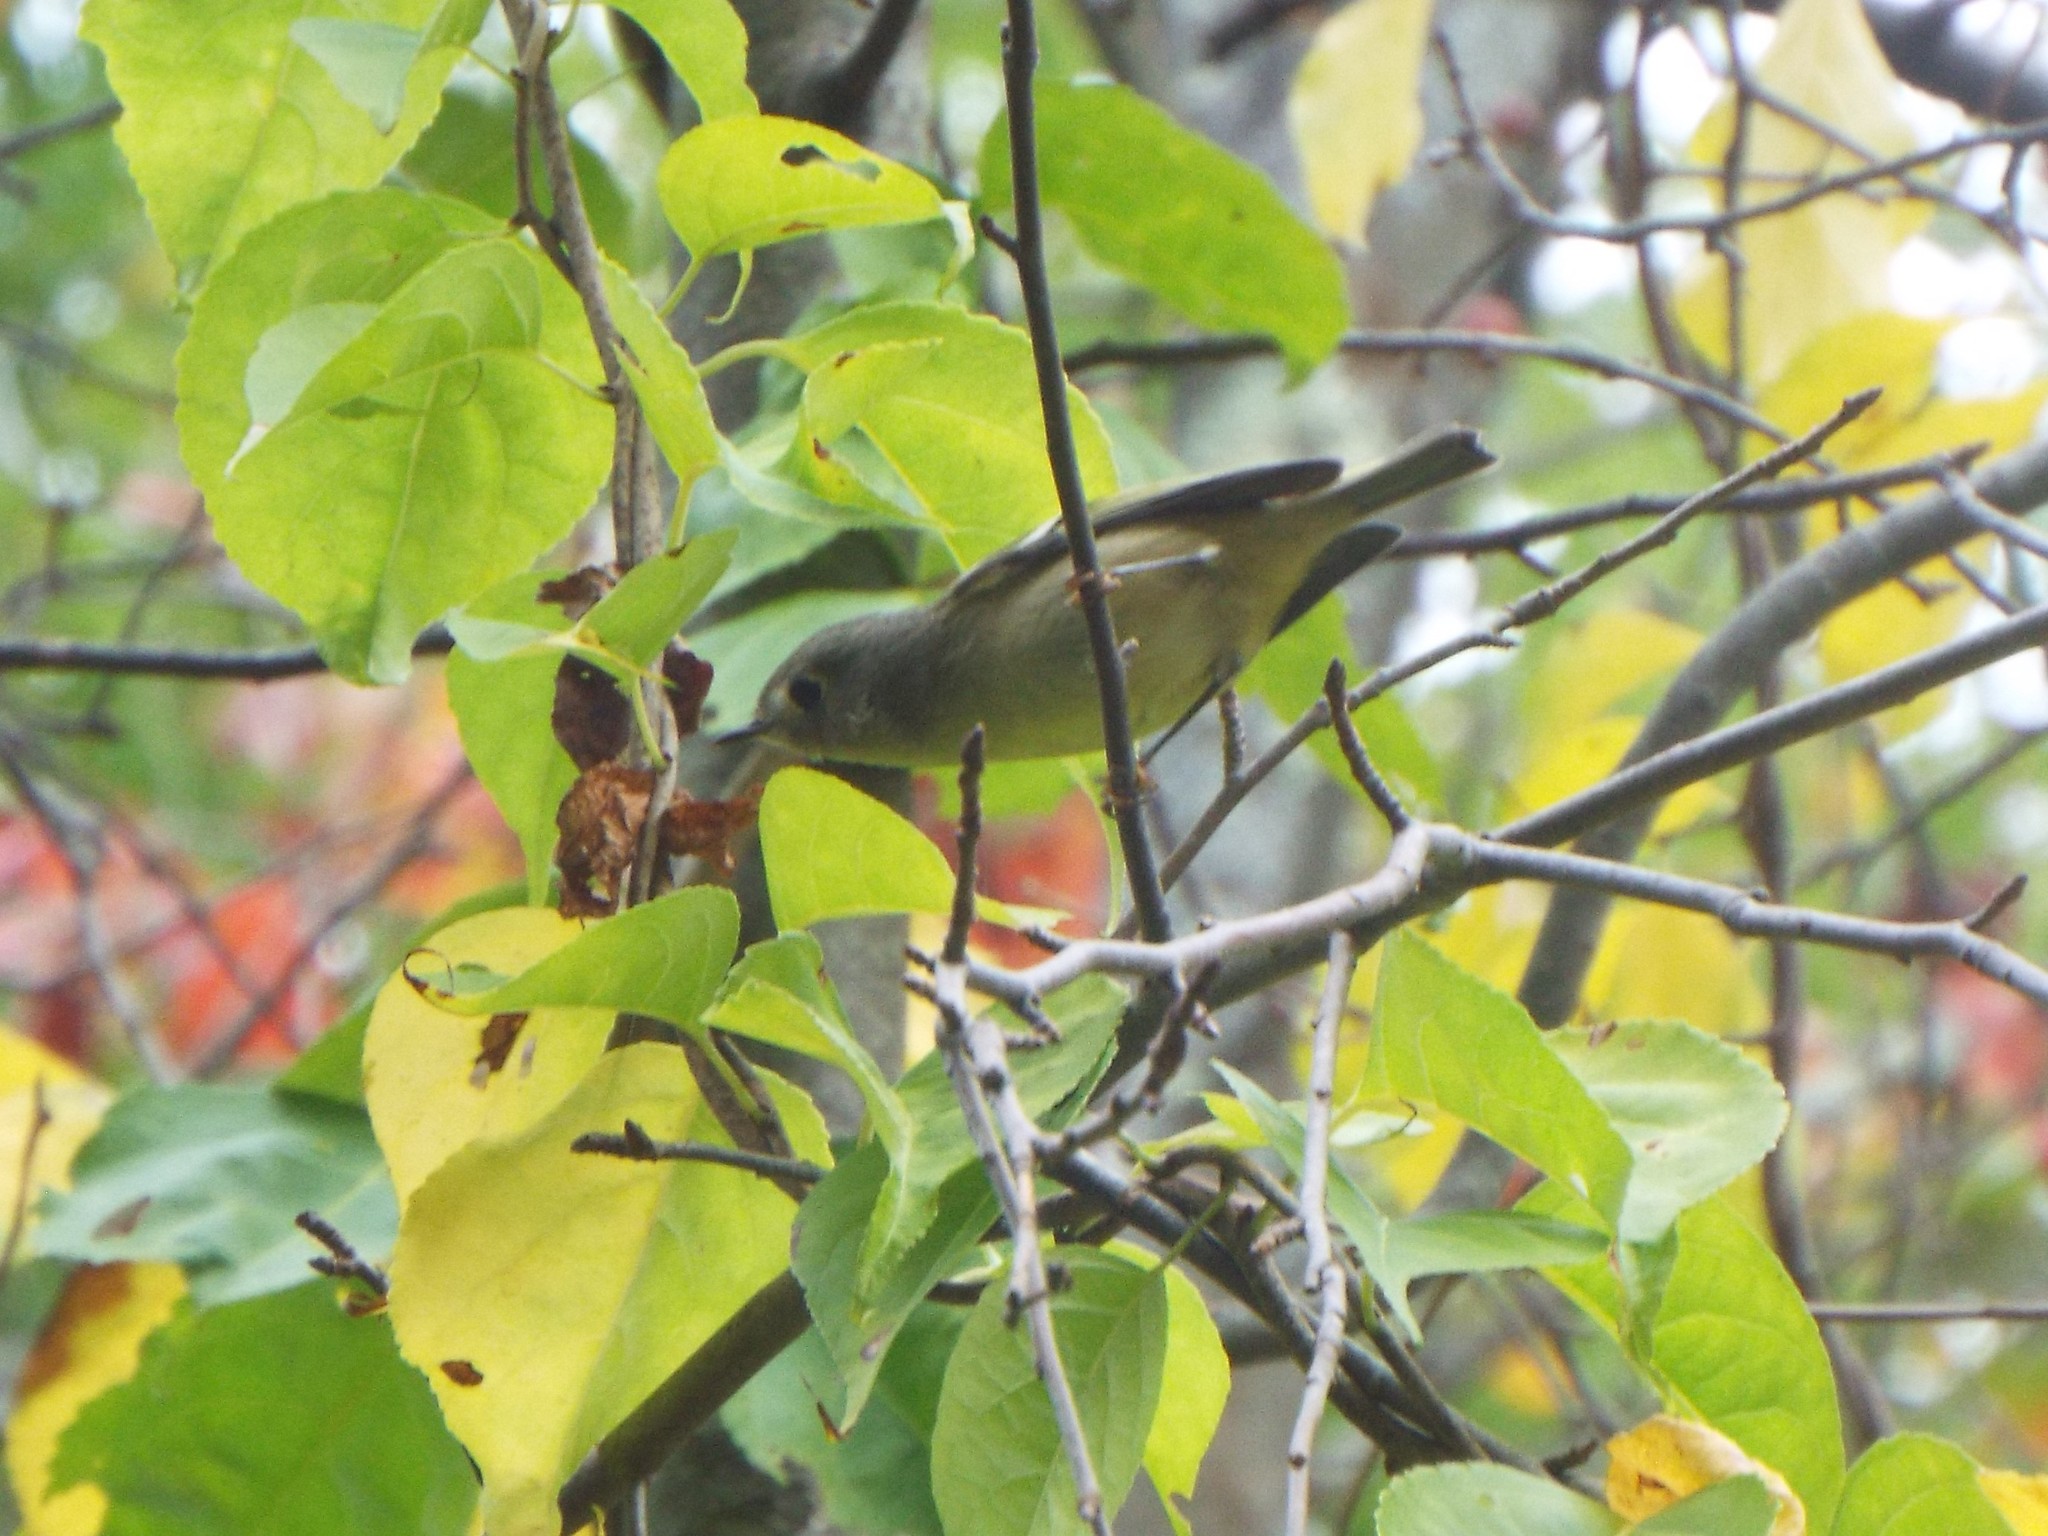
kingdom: Animalia
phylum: Chordata
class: Aves
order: Passeriformes
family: Regulidae
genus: Regulus
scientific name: Regulus calendula
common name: Ruby-crowned kinglet
